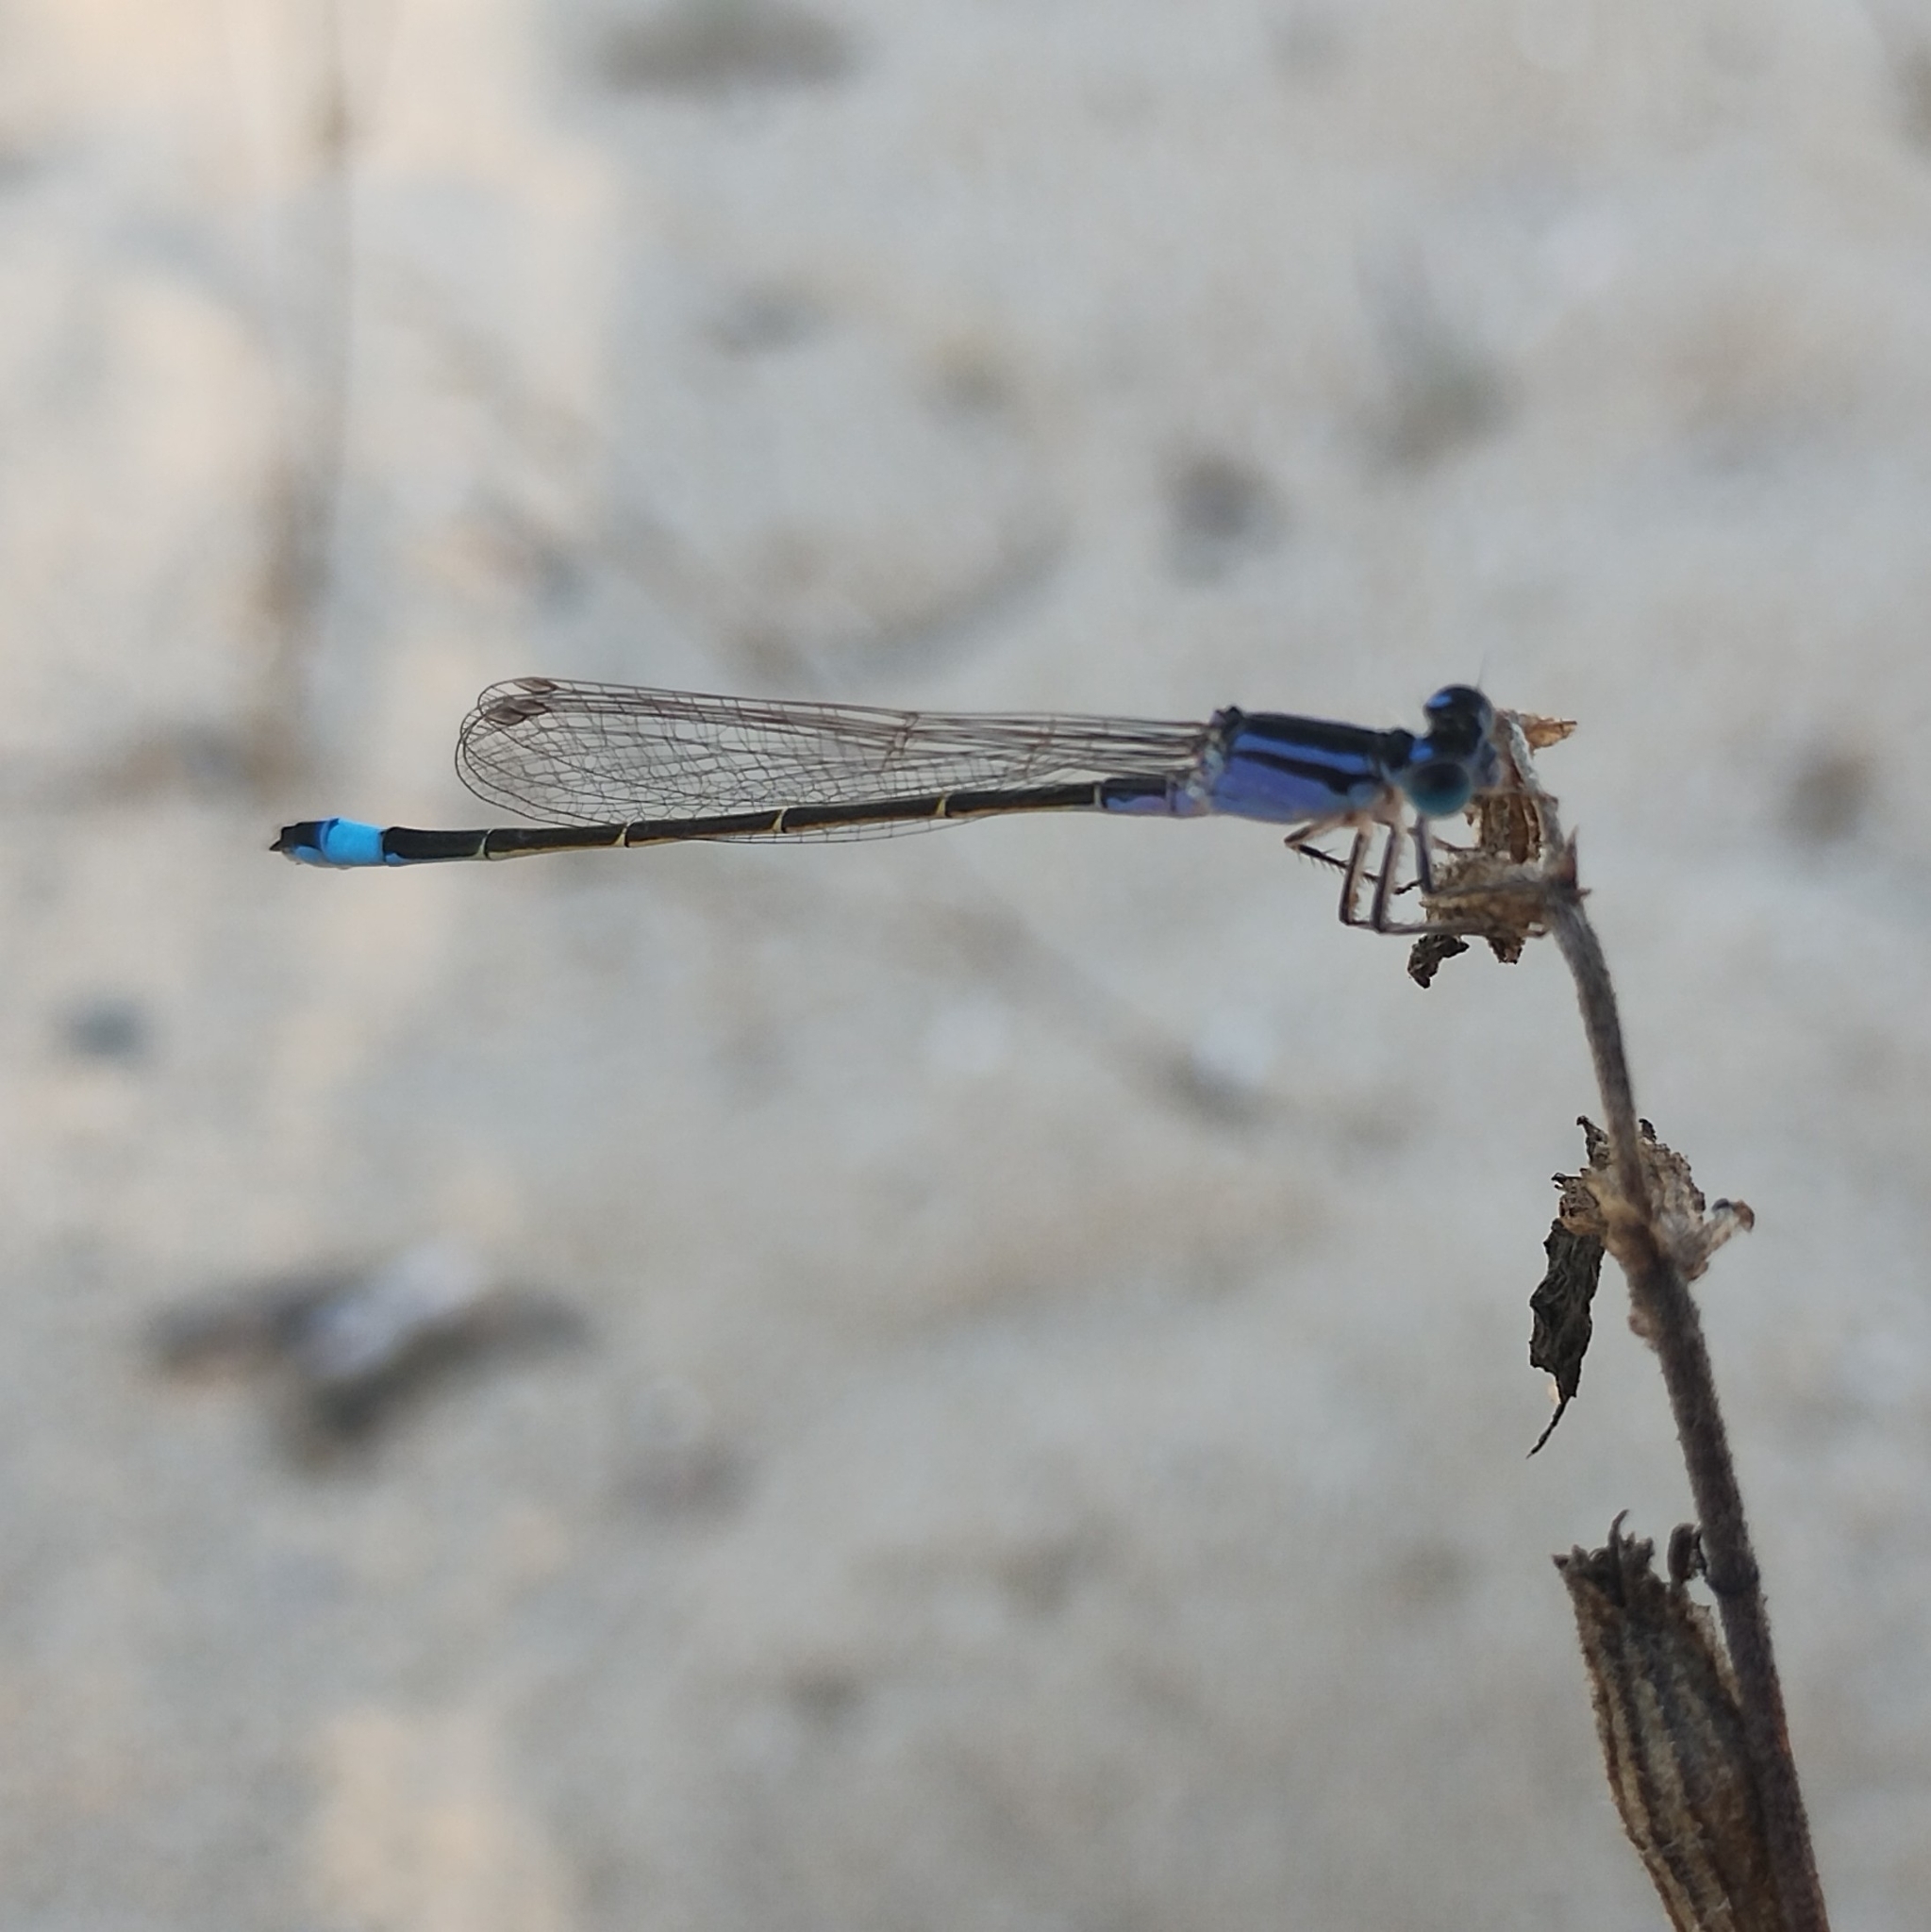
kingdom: Animalia
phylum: Arthropoda
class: Insecta
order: Odonata
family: Coenagrionidae
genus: Ischnura
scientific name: Ischnura elegans
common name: Blue-tailed damselfly
